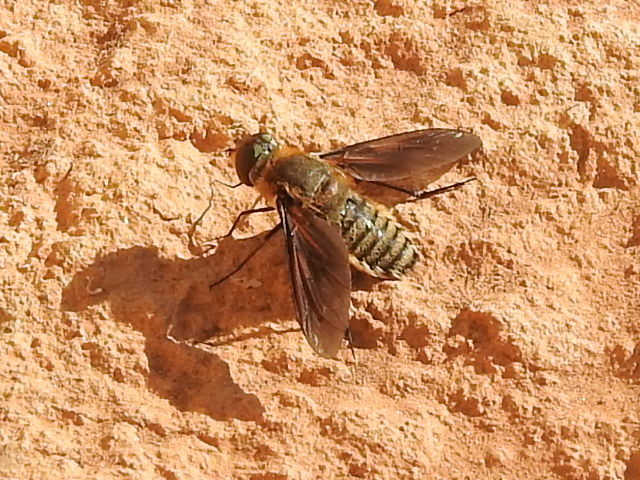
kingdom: Animalia
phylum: Arthropoda
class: Insecta
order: Diptera
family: Bombyliidae
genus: Poecilanthrax
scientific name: Poecilanthrax lucifer
